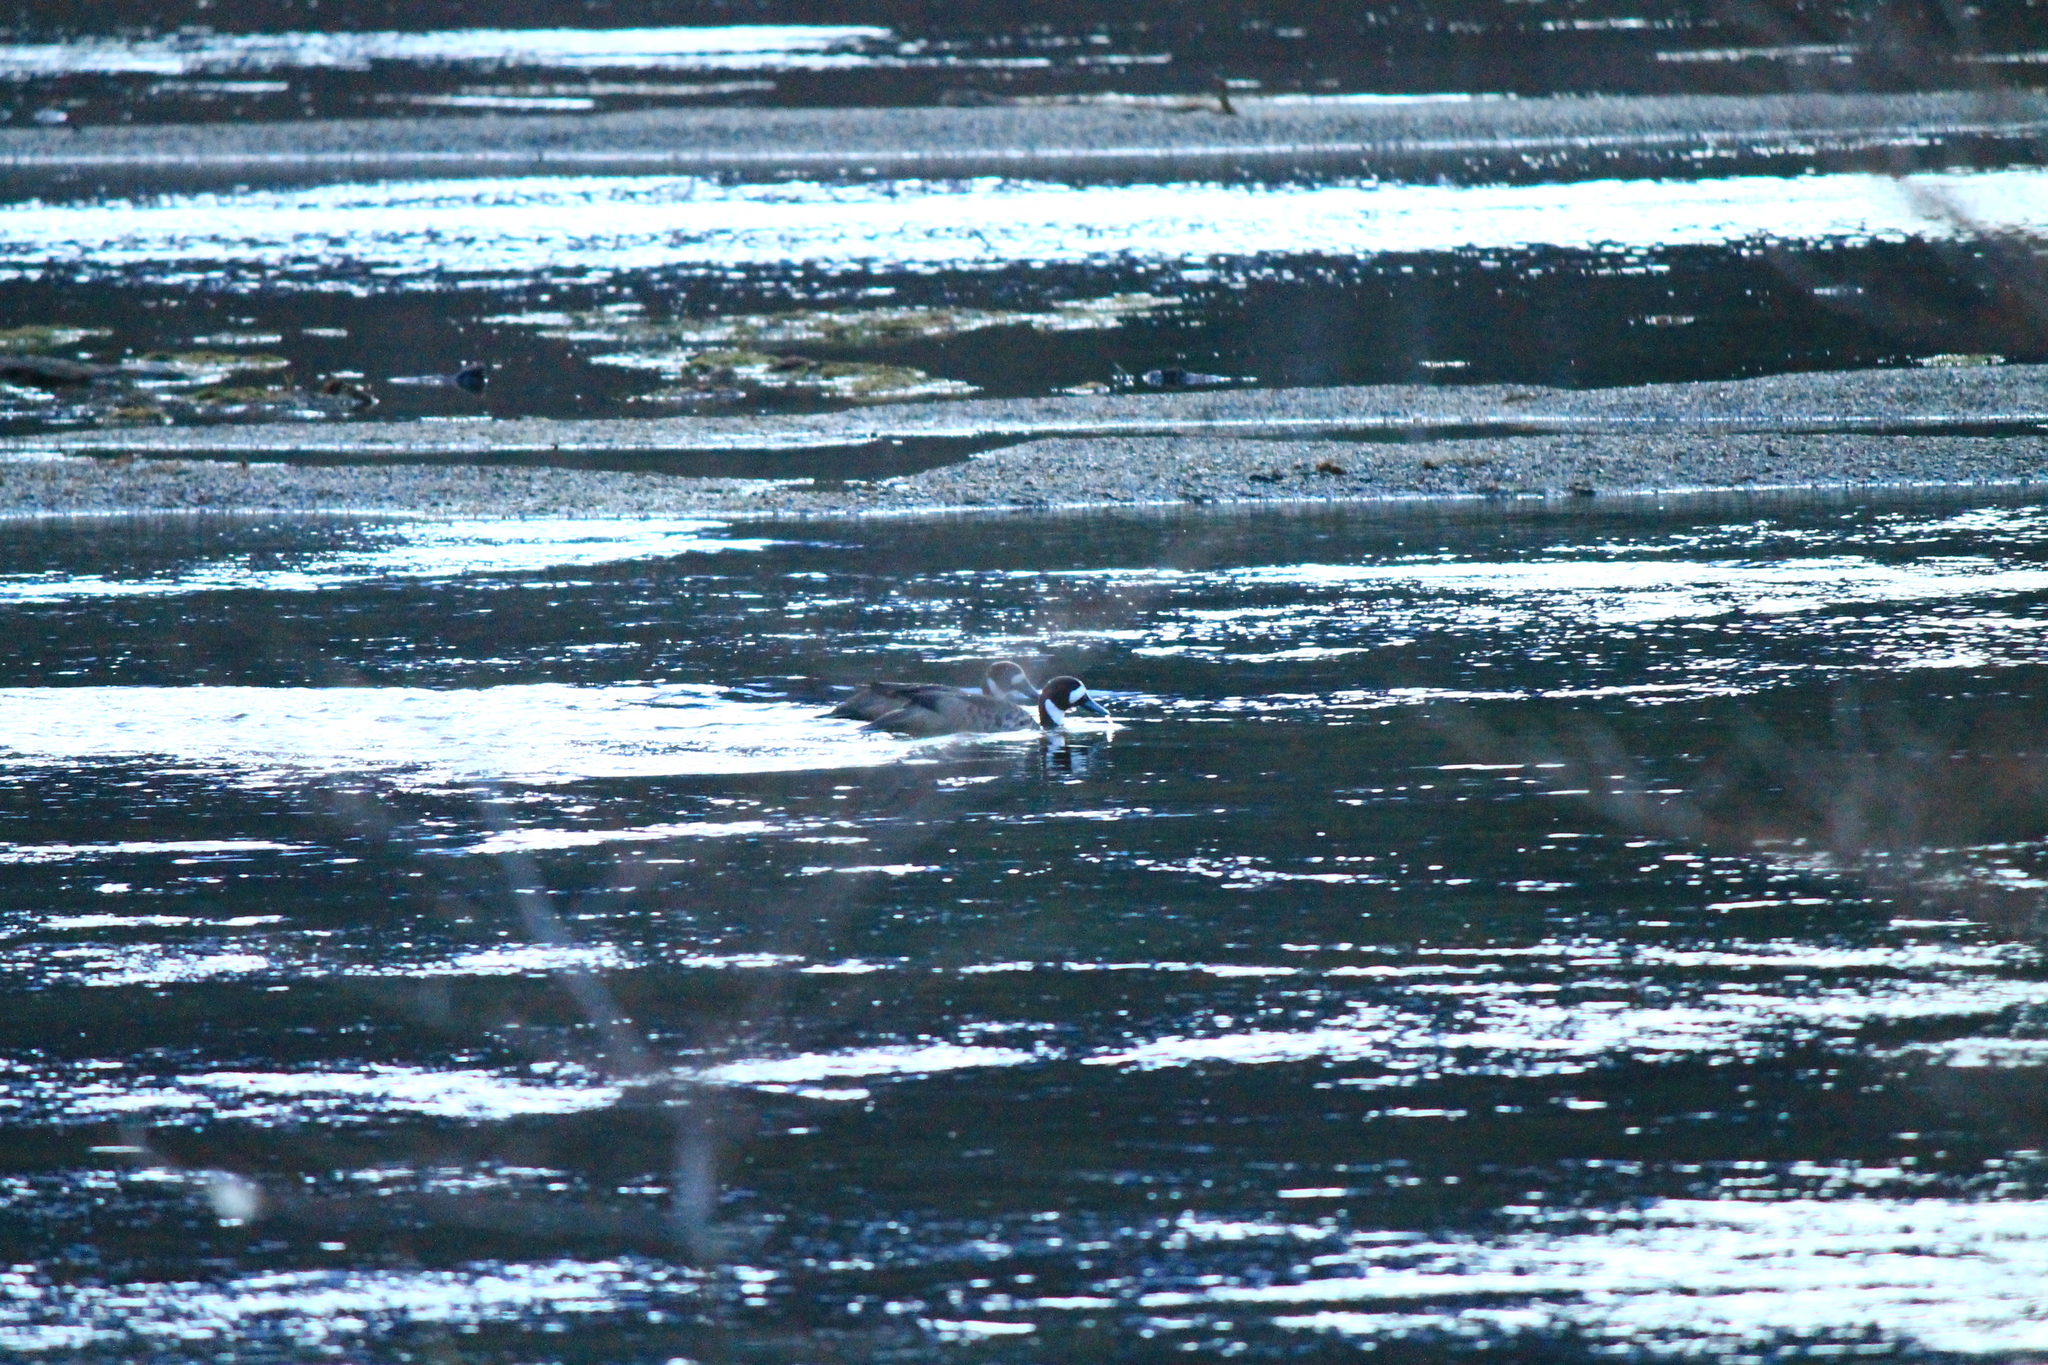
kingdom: Animalia
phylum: Chordata
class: Aves
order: Anseriformes
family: Anatidae
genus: Speculanas
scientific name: Speculanas specularis
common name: Bronze-winged duck
